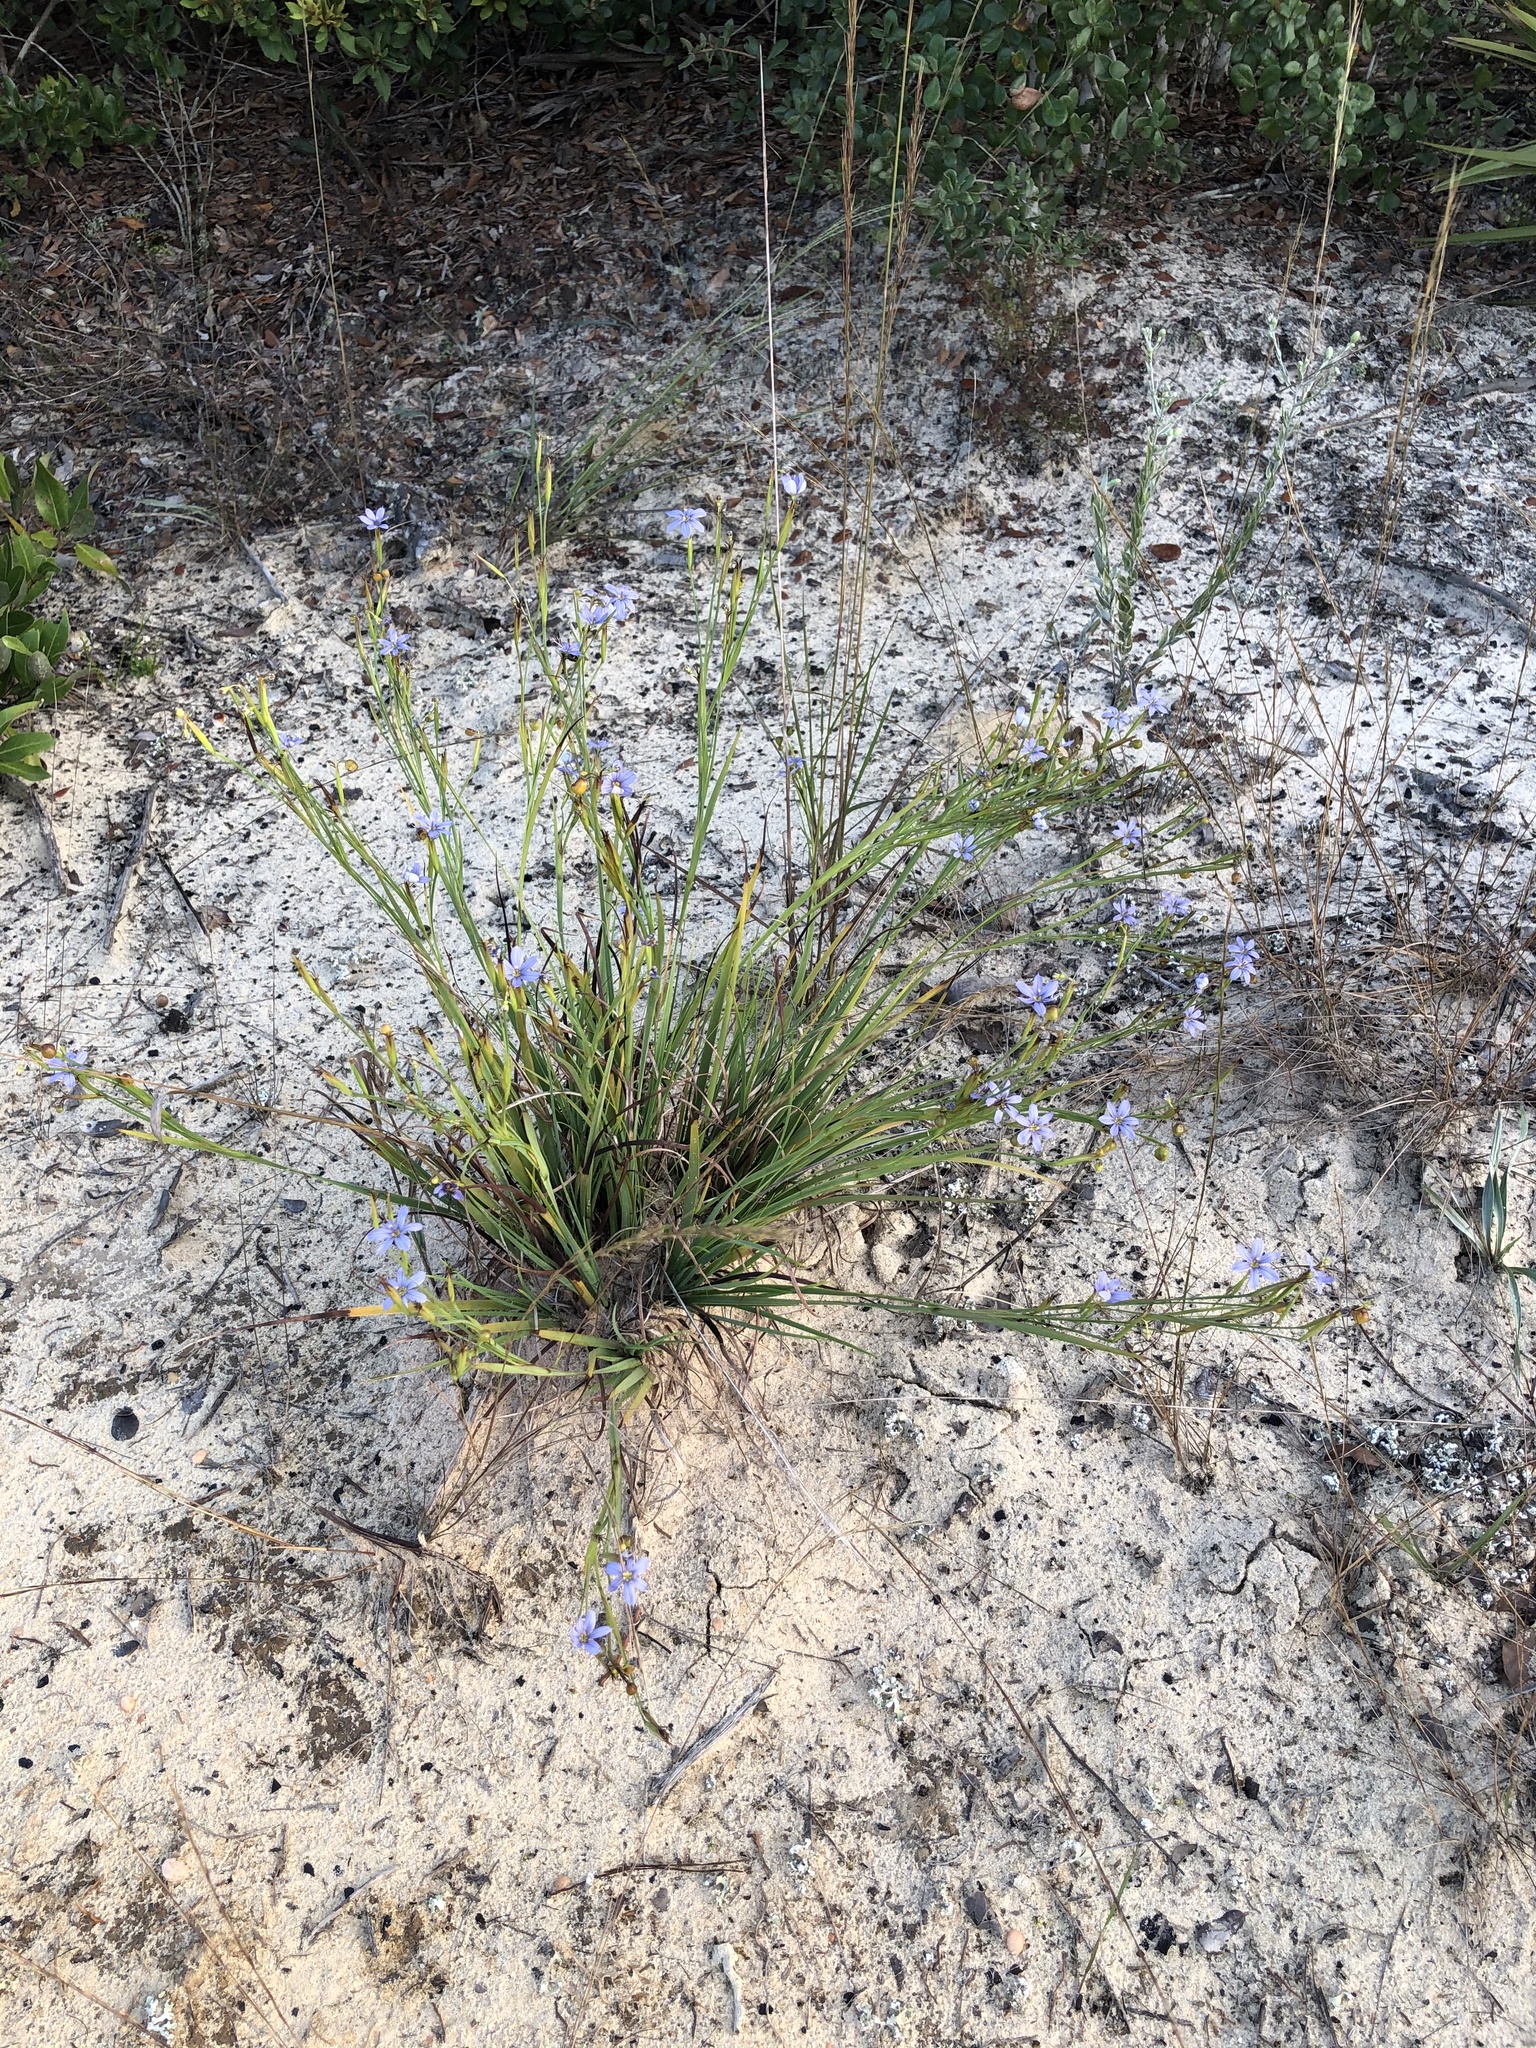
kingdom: Plantae
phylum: Tracheophyta
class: Liliopsida
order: Asparagales
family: Iridaceae
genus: Sisyrinchium
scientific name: Sisyrinchium angustifolium
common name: Narrow-leaf blue-eyed-grass
